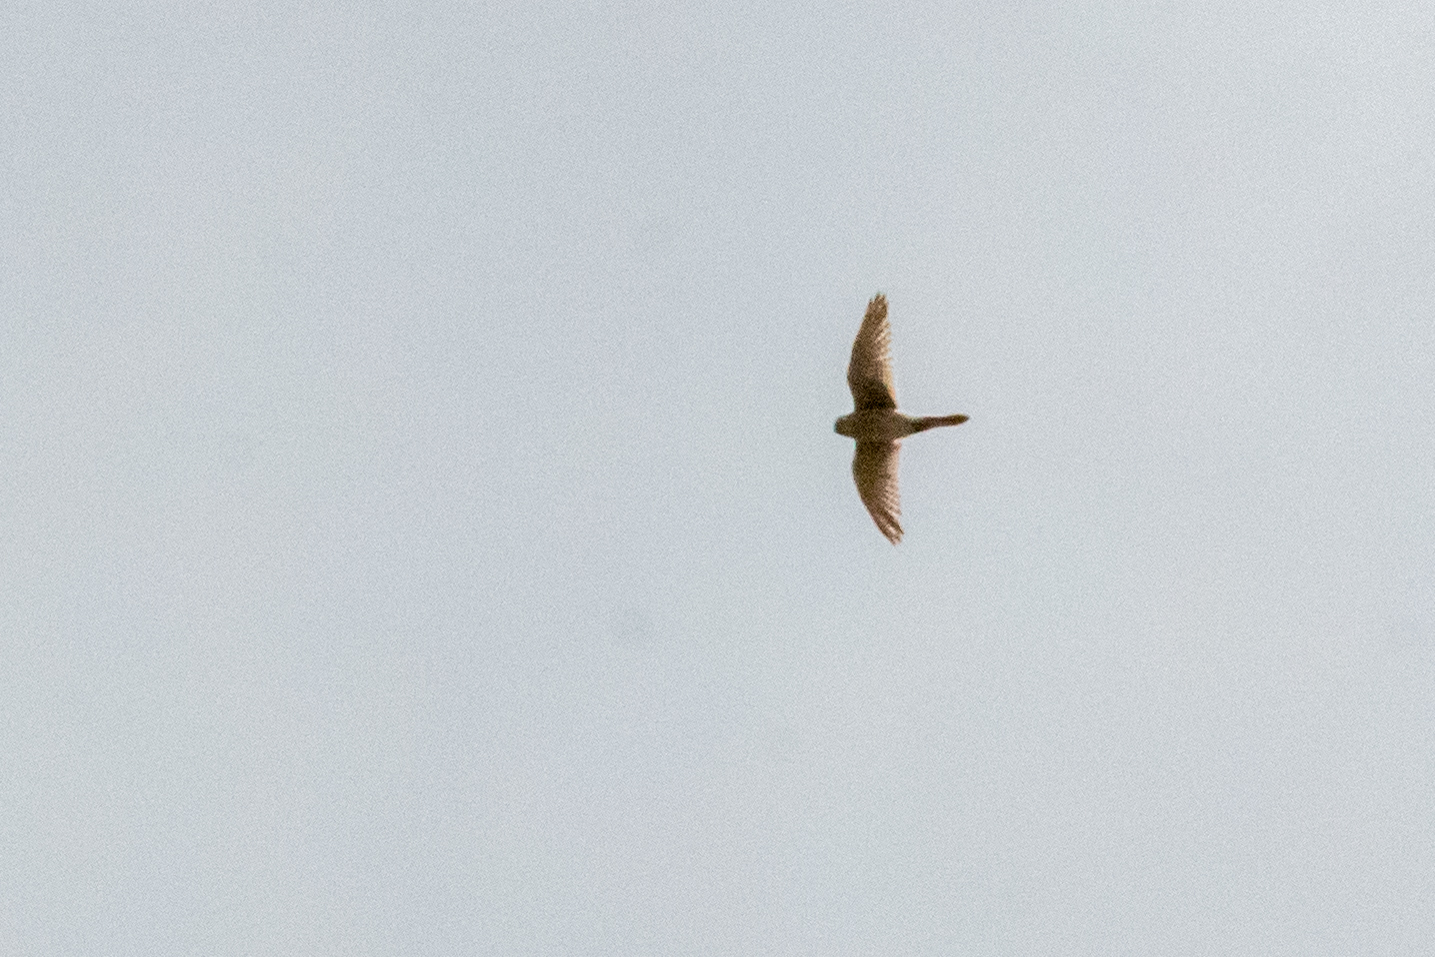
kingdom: Animalia
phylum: Chordata
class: Aves
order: Falconiformes
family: Falconidae
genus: Falco
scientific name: Falco sparverius
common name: American kestrel
